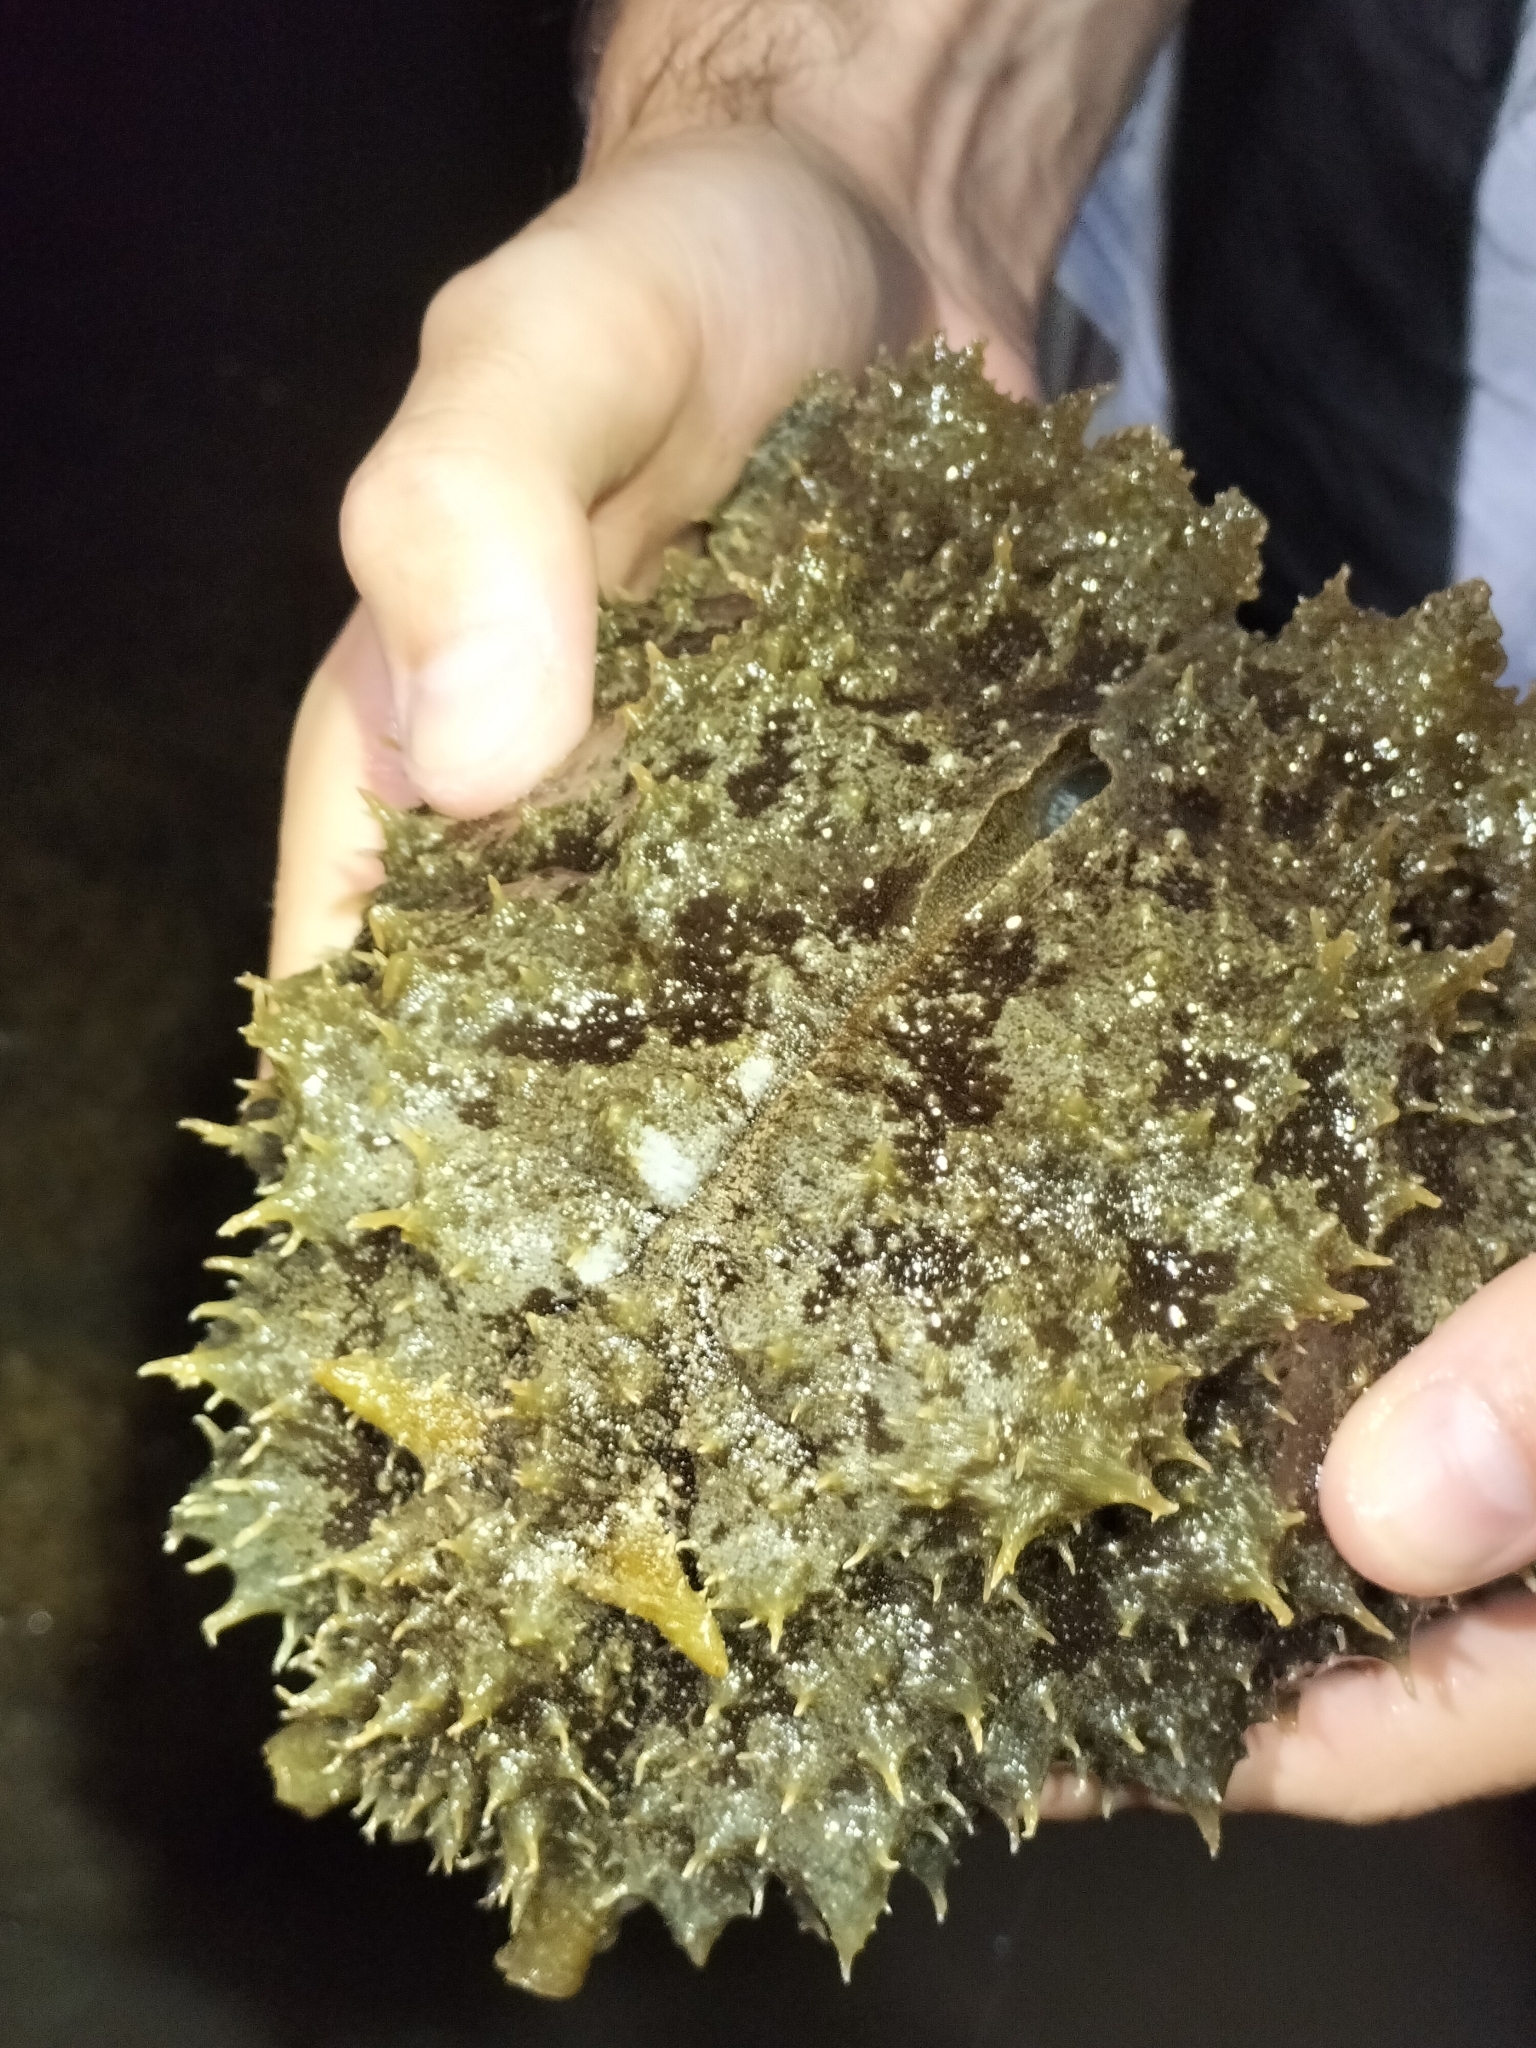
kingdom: Animalia
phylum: Mollusca
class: Gastropoda
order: Aplysiida
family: Aplysiidae
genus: Dolabella
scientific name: Dolabella auricularia
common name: Blunt-end seahare
